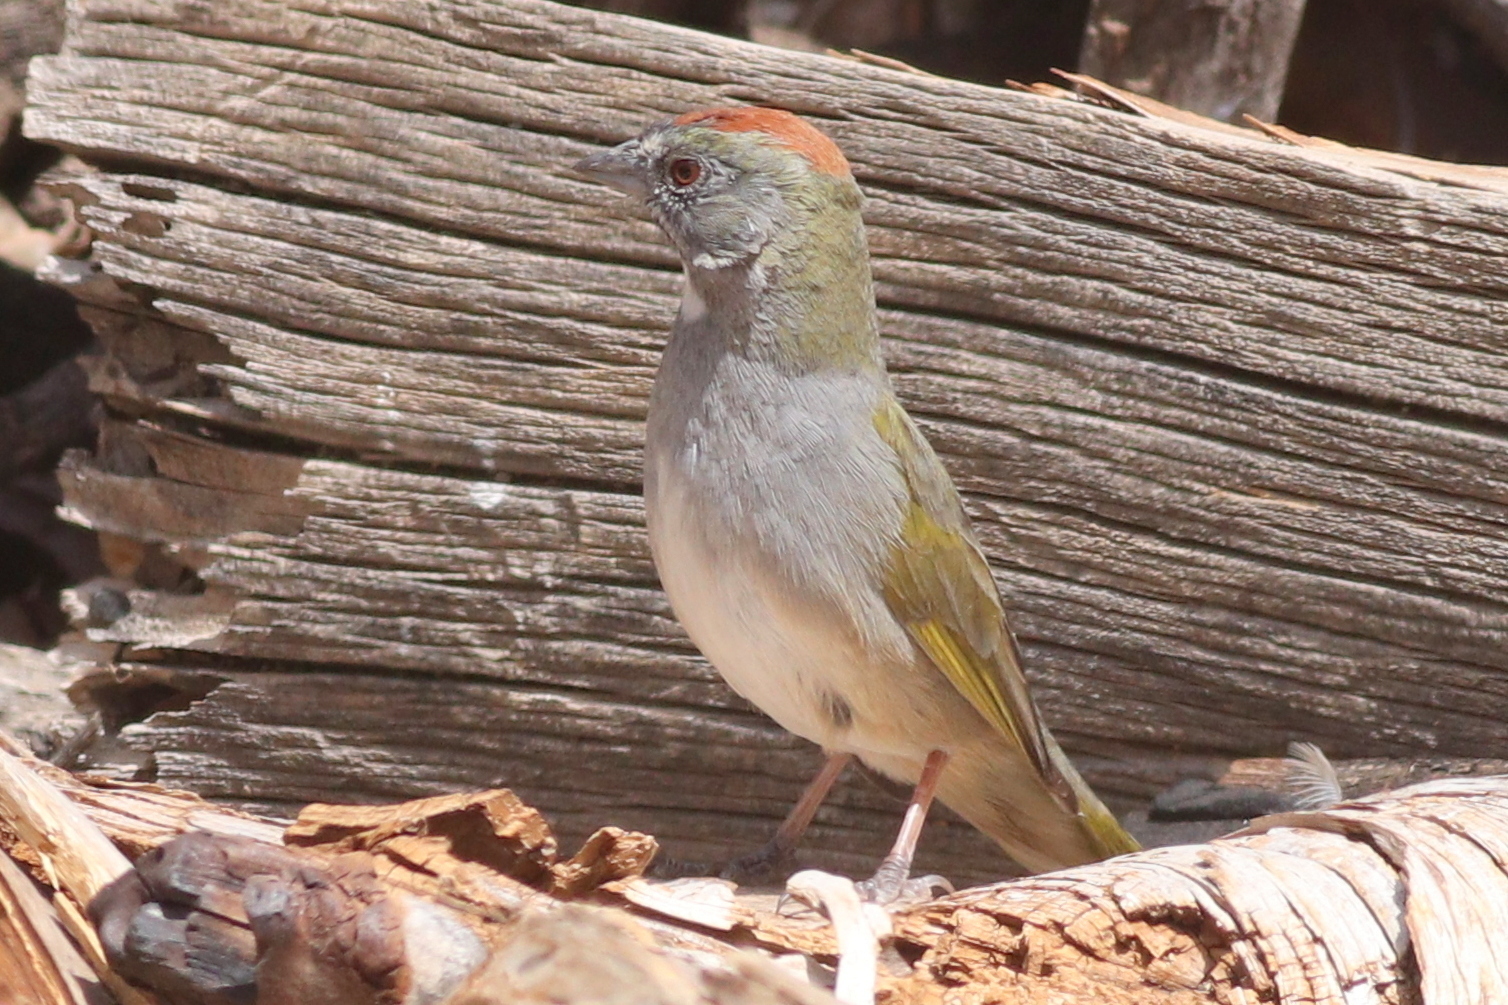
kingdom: Animalia
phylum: Chordata
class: Aves
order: Passeriformes
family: Passerellidae
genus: Pipilo
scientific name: Pipilo chlorurus
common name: Green-tailed towhee
